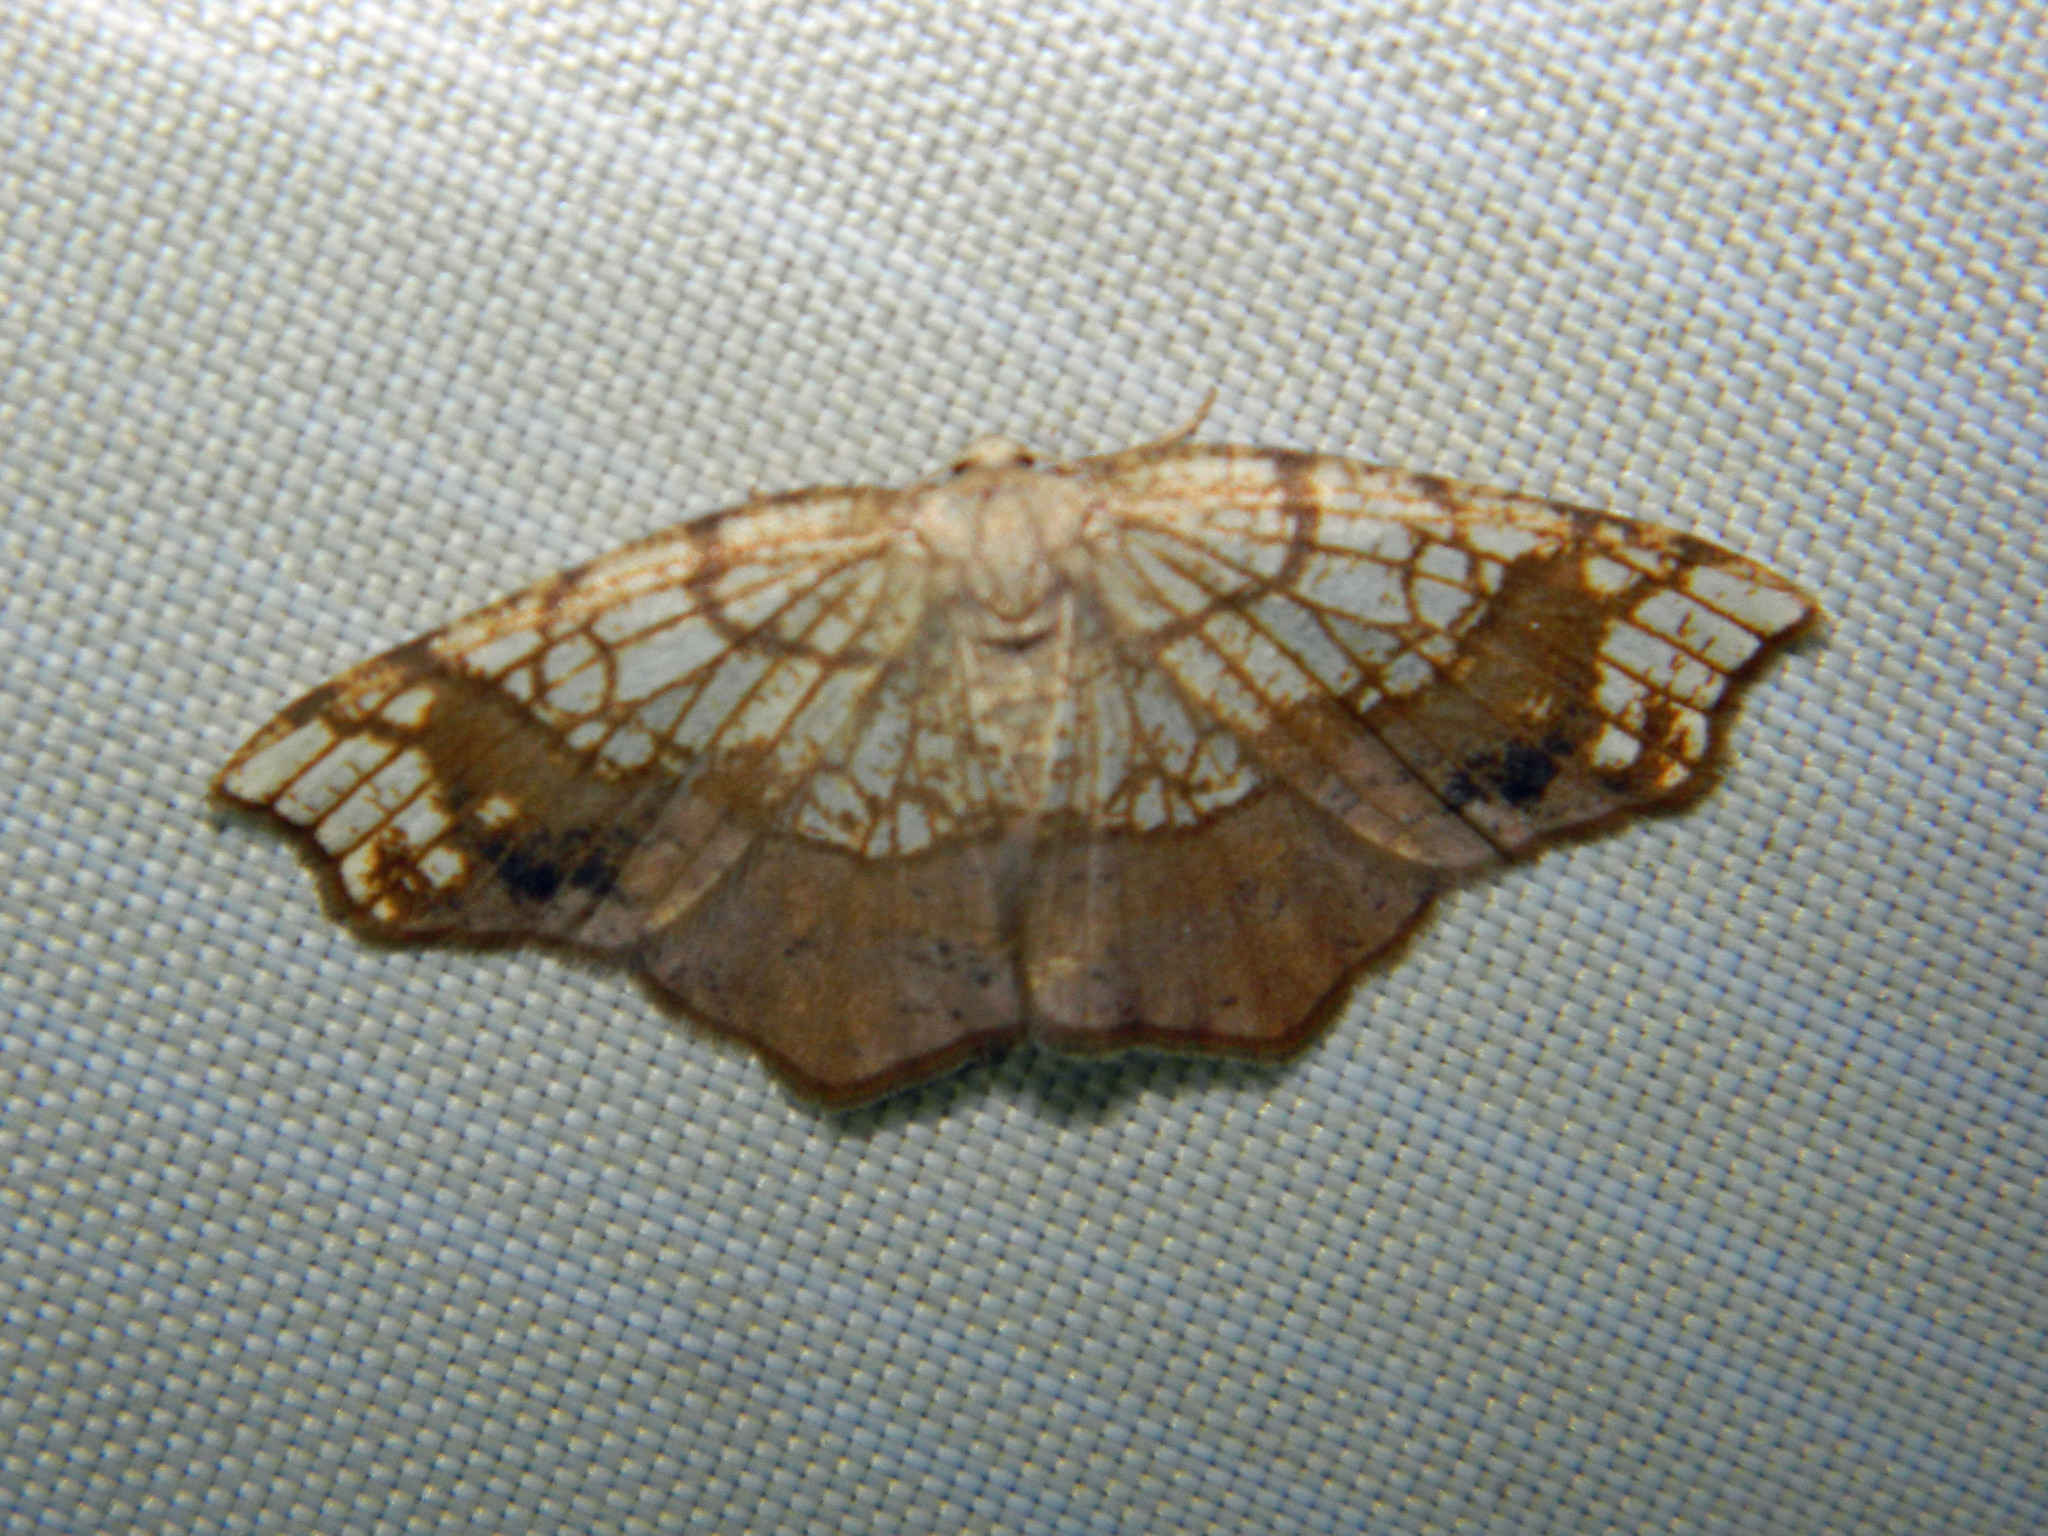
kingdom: Animalia
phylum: Arthropoda
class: Insecta
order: Lepidoptera
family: Geometridae
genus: Nematocampa
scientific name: Nematocampa resistaria
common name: Horned spanworm moth
